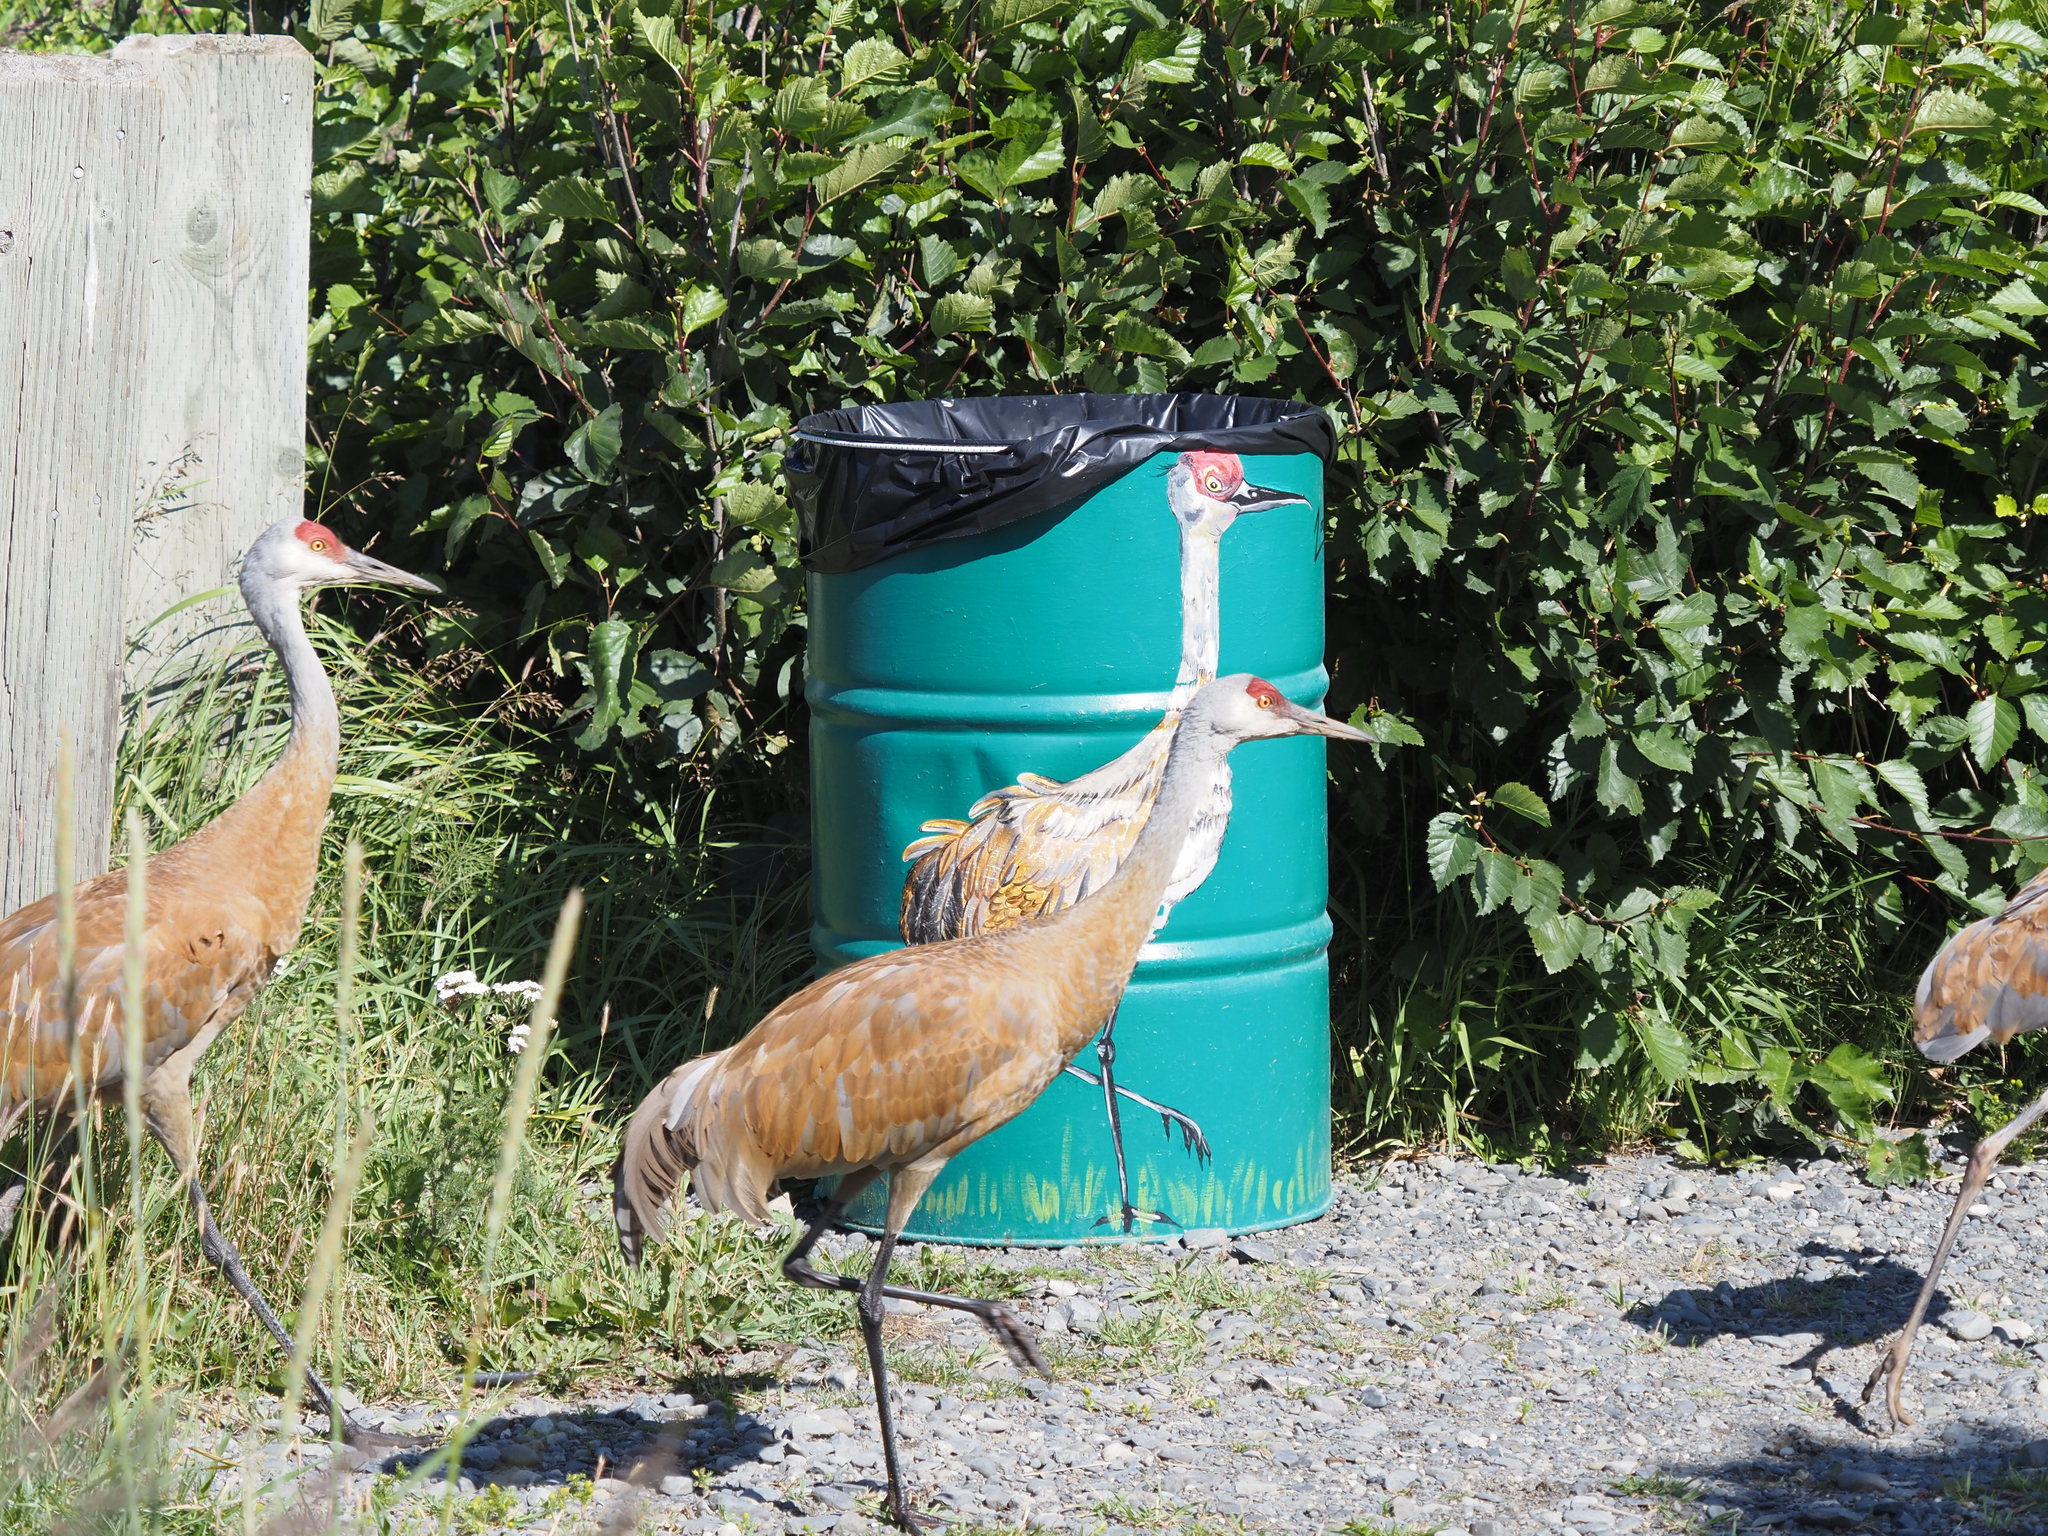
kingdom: Animalia
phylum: Chordata
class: Aves
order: Gruiformes
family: Gruidae
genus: Grus
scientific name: Grus canadensis
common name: Sandhill crane
